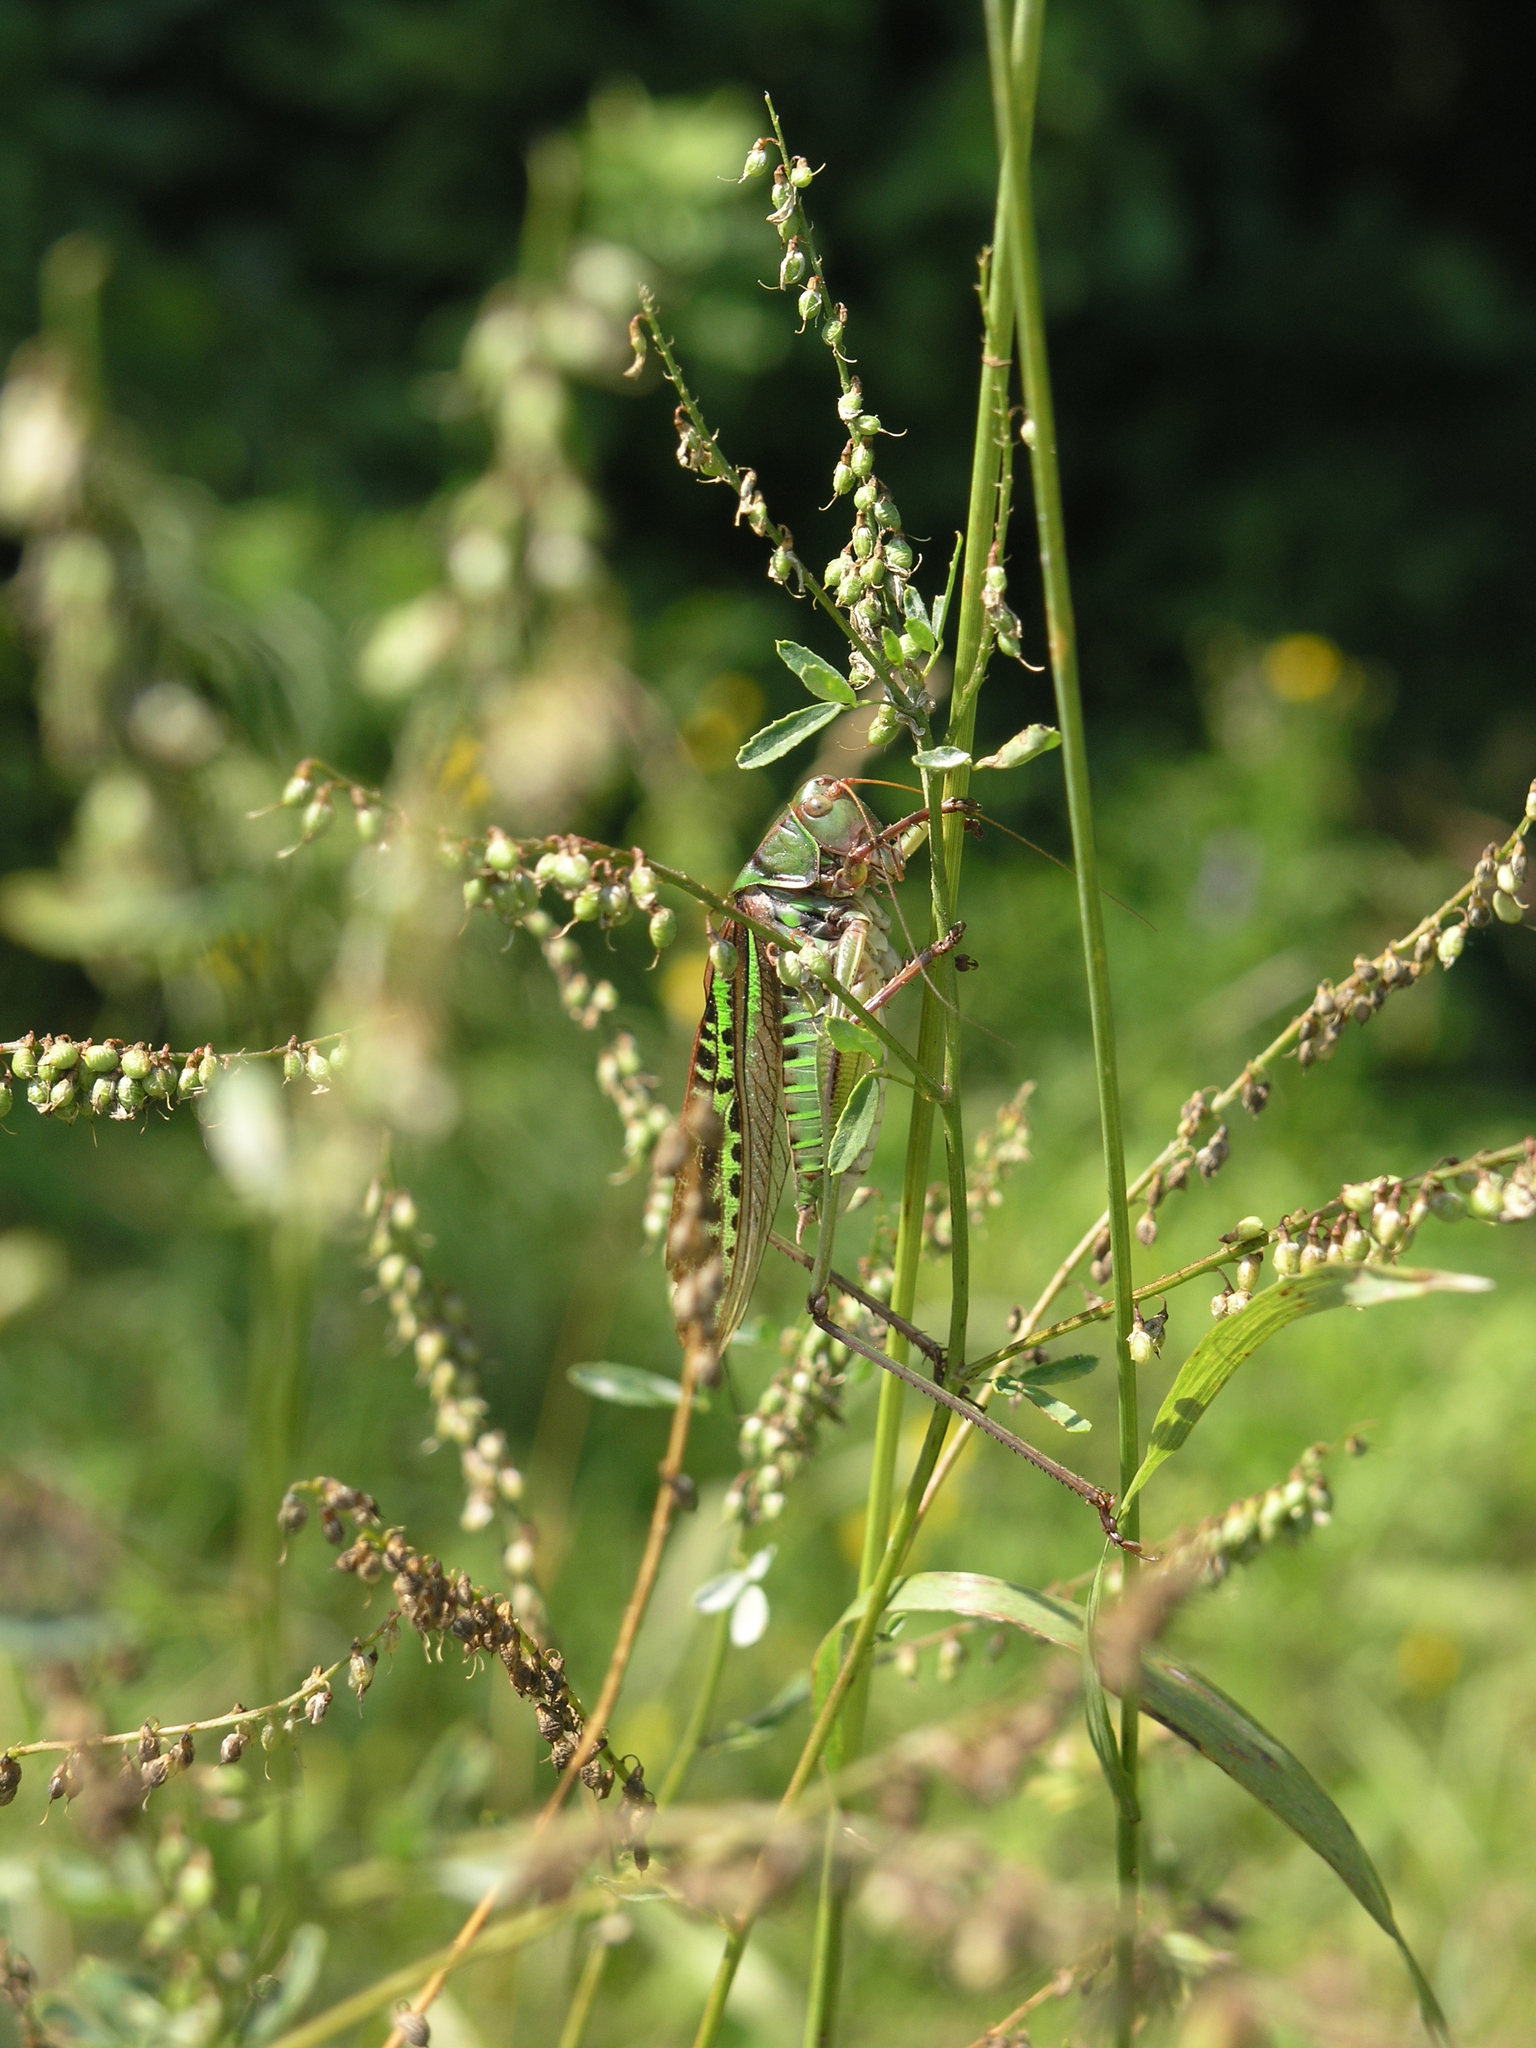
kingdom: Animalia
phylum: Arthropoda
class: Insecta
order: Orthoptera
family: Tettigoniidae
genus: Gampsocleis
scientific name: Gampsocleis sedakovii
